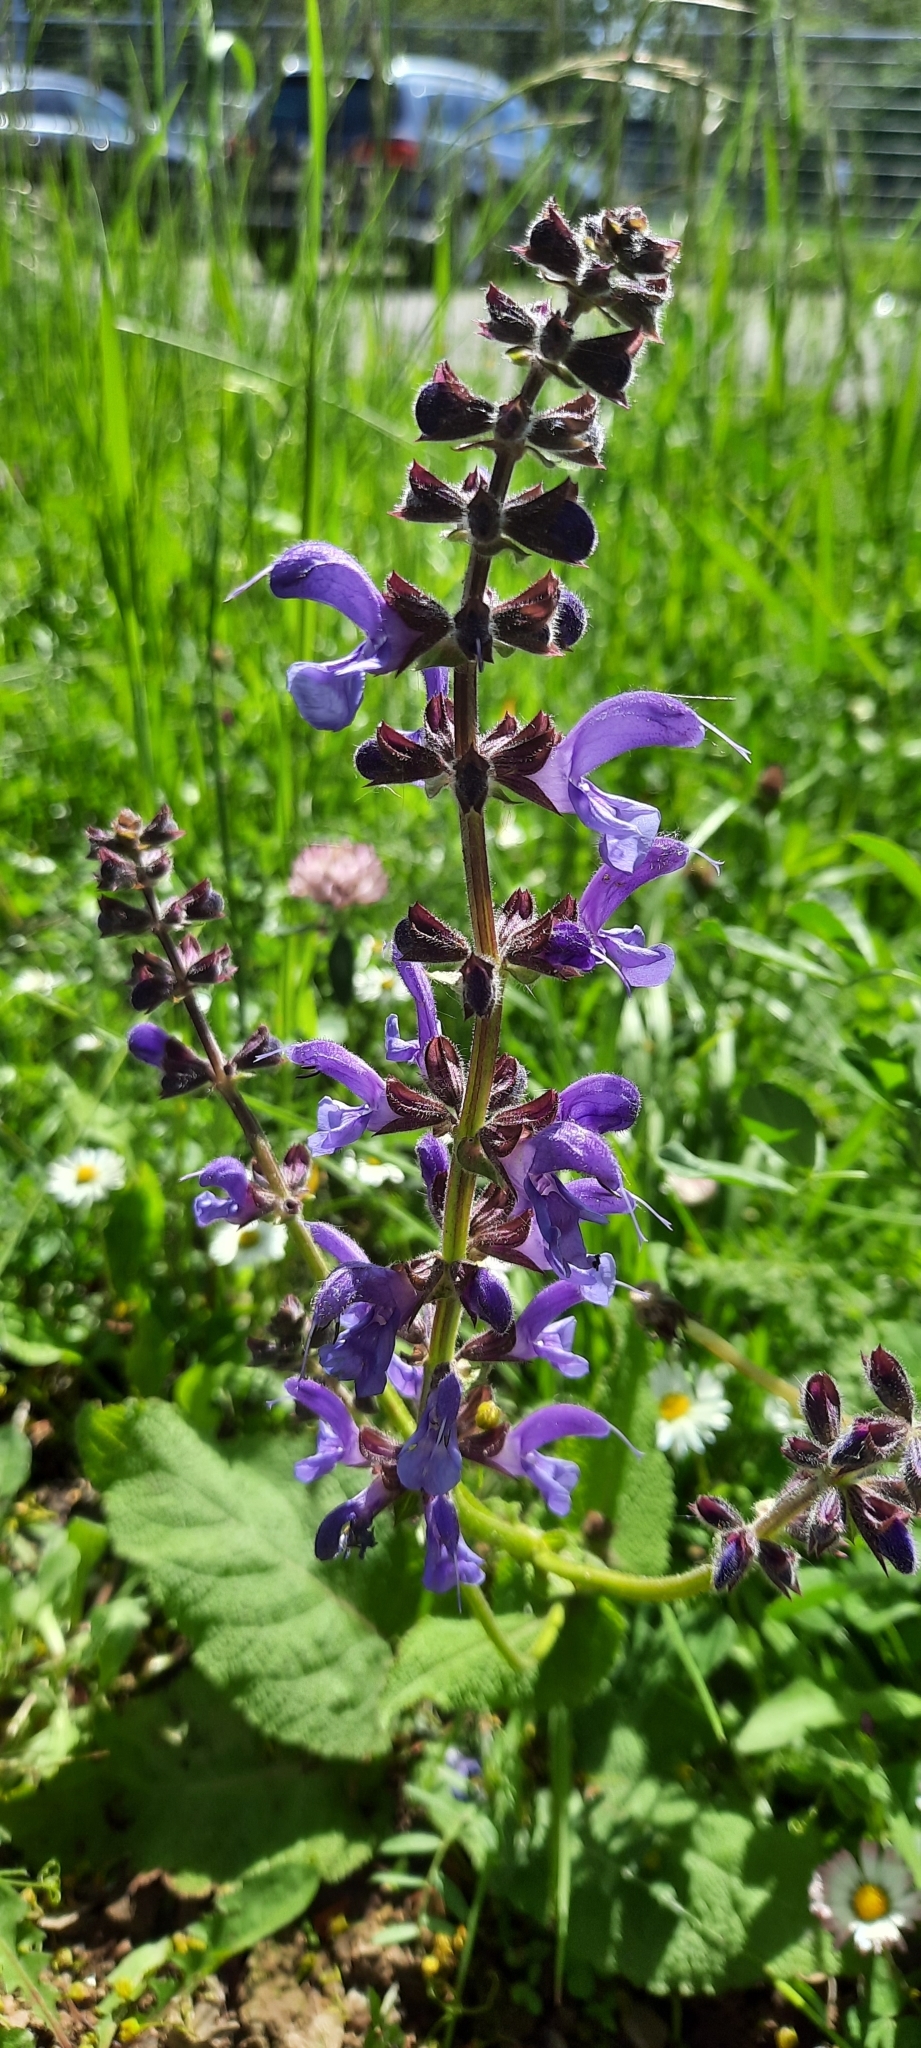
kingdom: Plantae
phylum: Tracheophyta
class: Magnoliopsida
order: Lamiales
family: Lamiaceae
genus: Salvia
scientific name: Salvia pratensis
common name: Meadow sage
